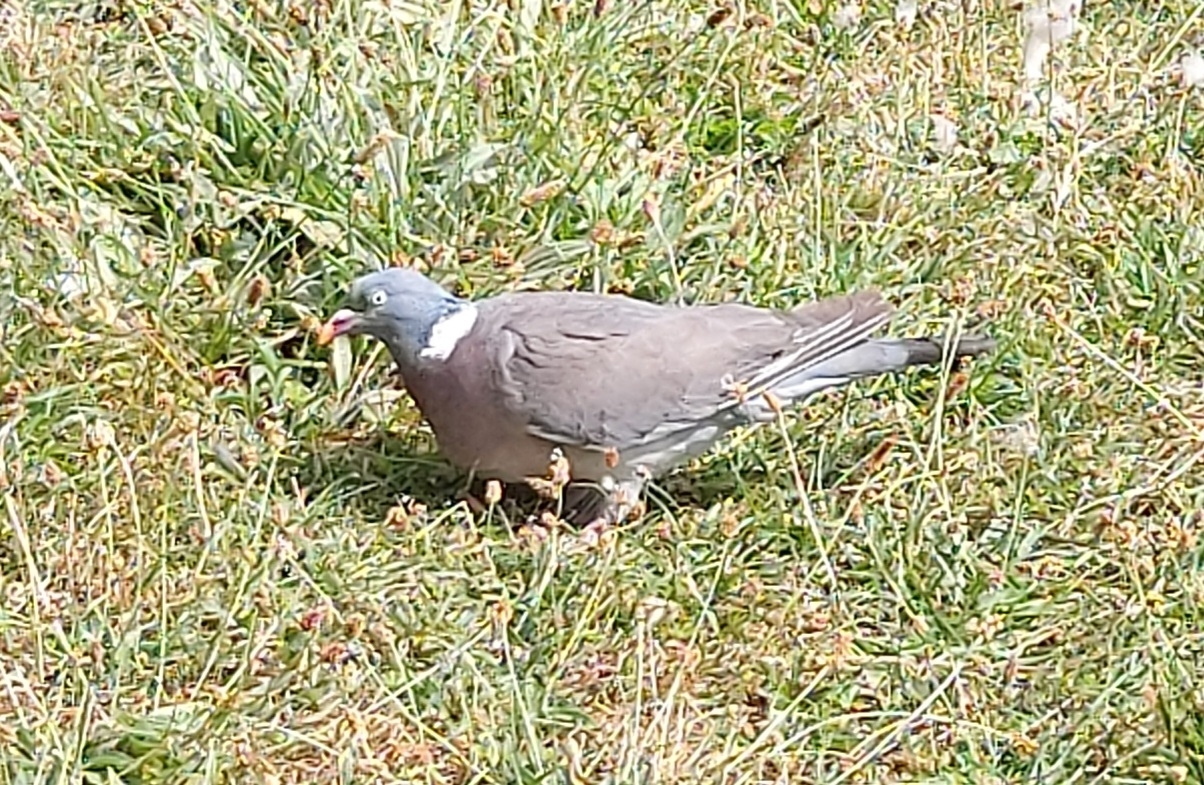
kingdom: Animalia
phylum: Chordata
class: Aves
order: Columbiformes
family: Columbidae
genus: Columba
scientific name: Columba palumbus
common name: Common wood pigeon
